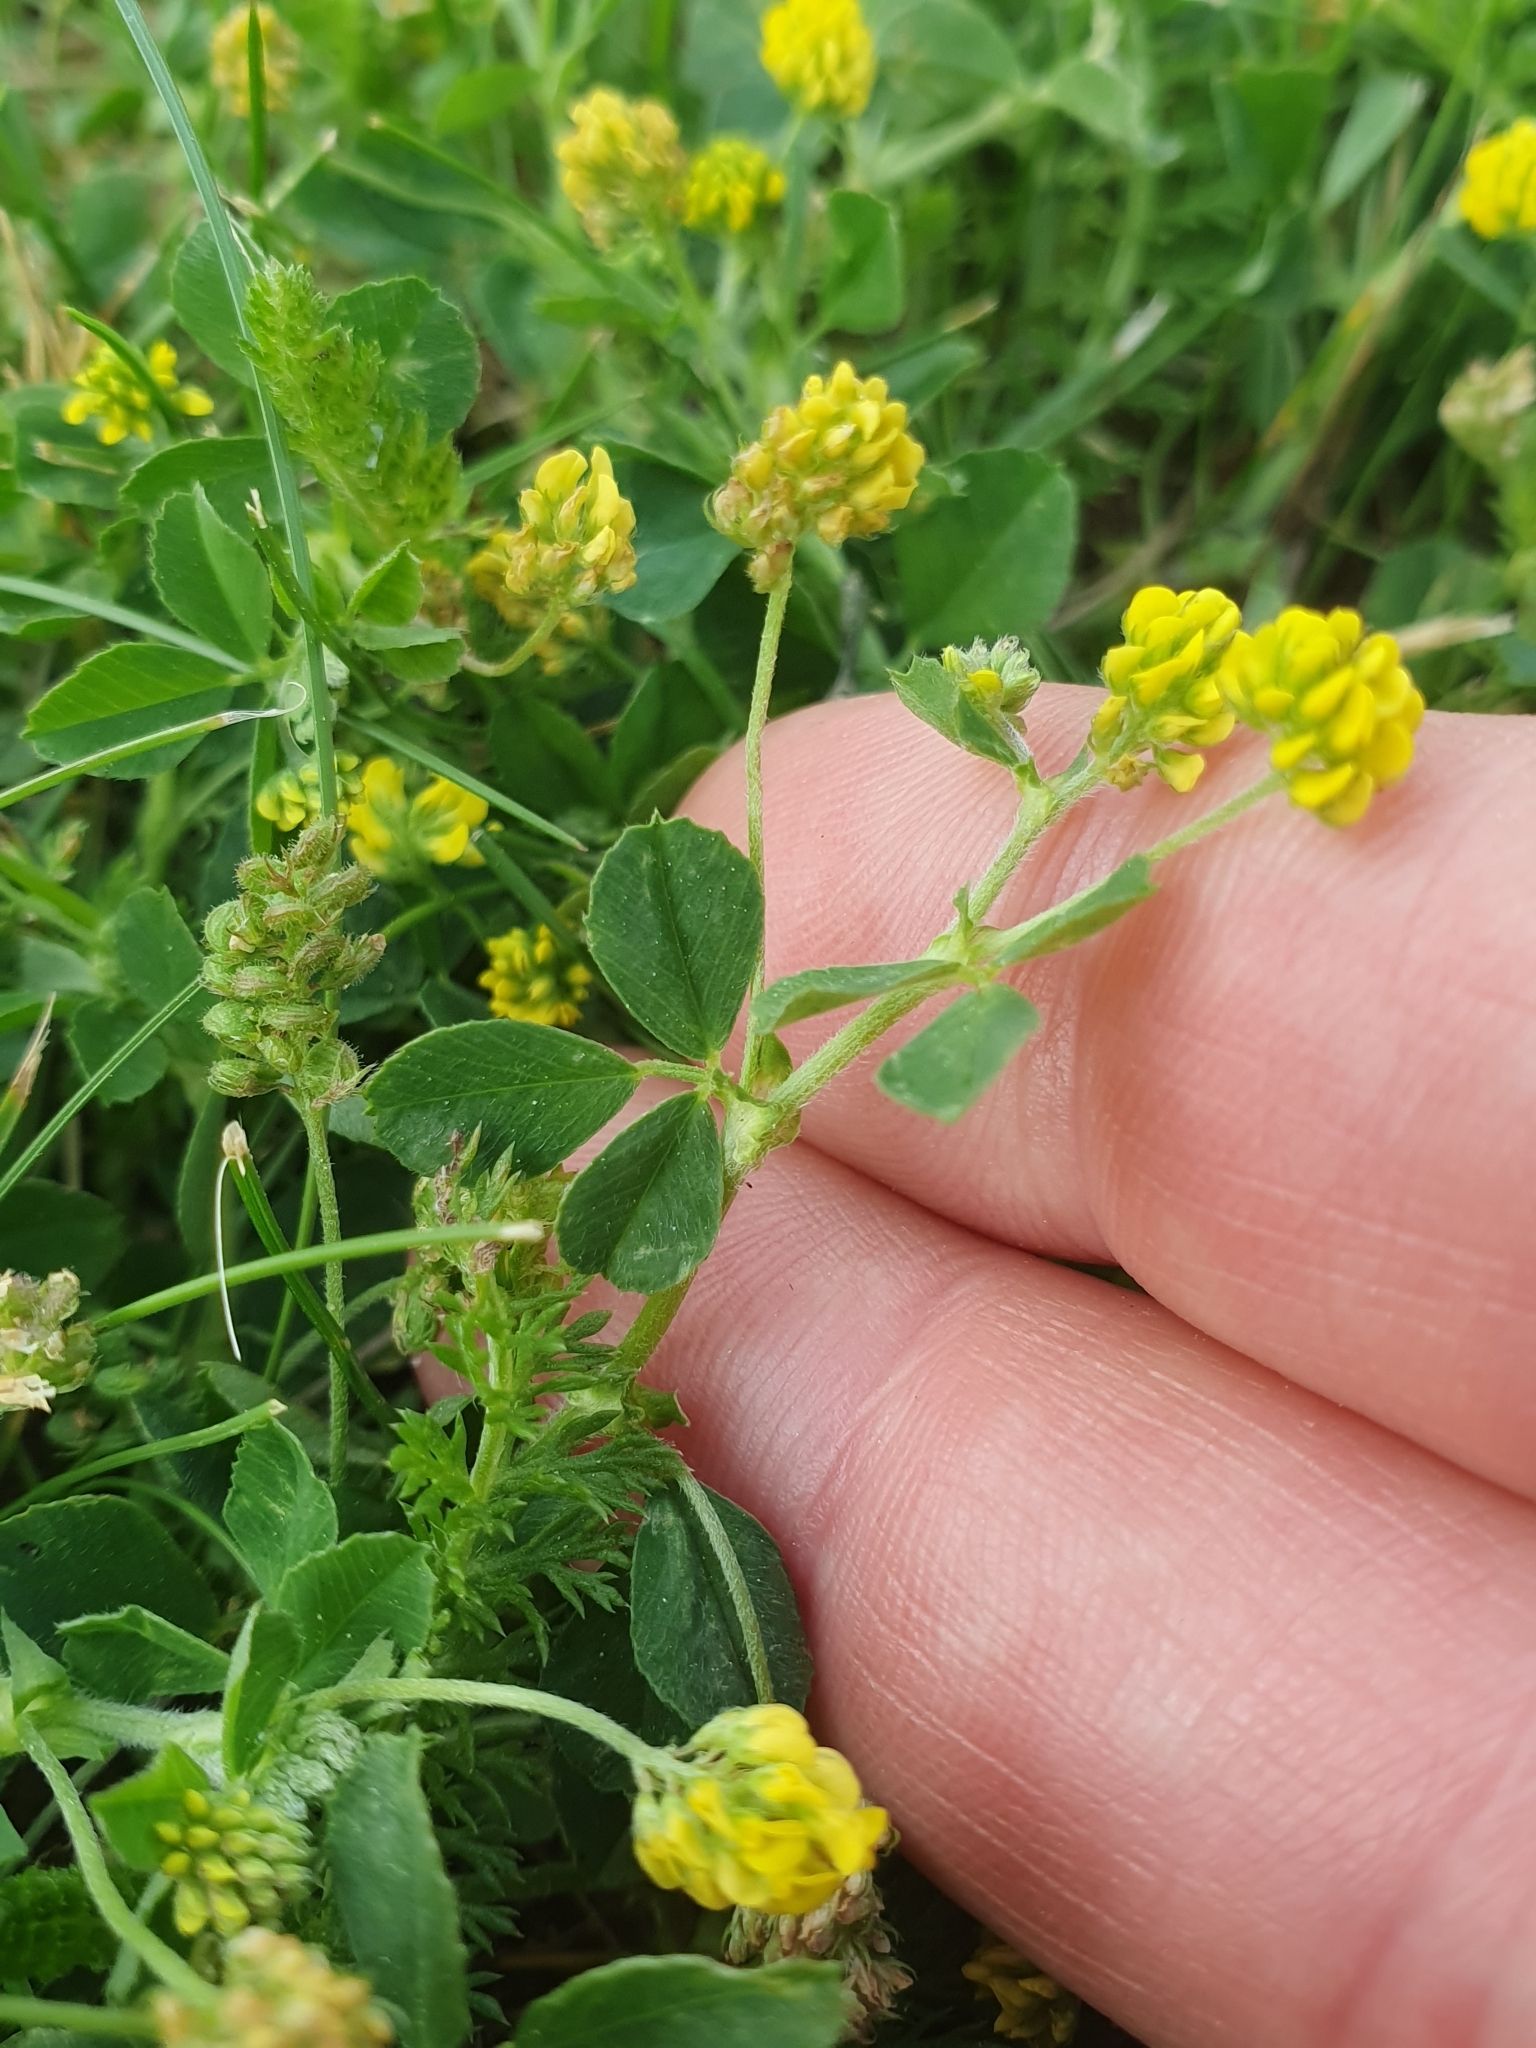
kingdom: Plantae
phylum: Tracheophyta
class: Magnoliopsida
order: Fabales
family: Fabaceae
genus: Medicago
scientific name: Medicago lupulina
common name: Black medick
